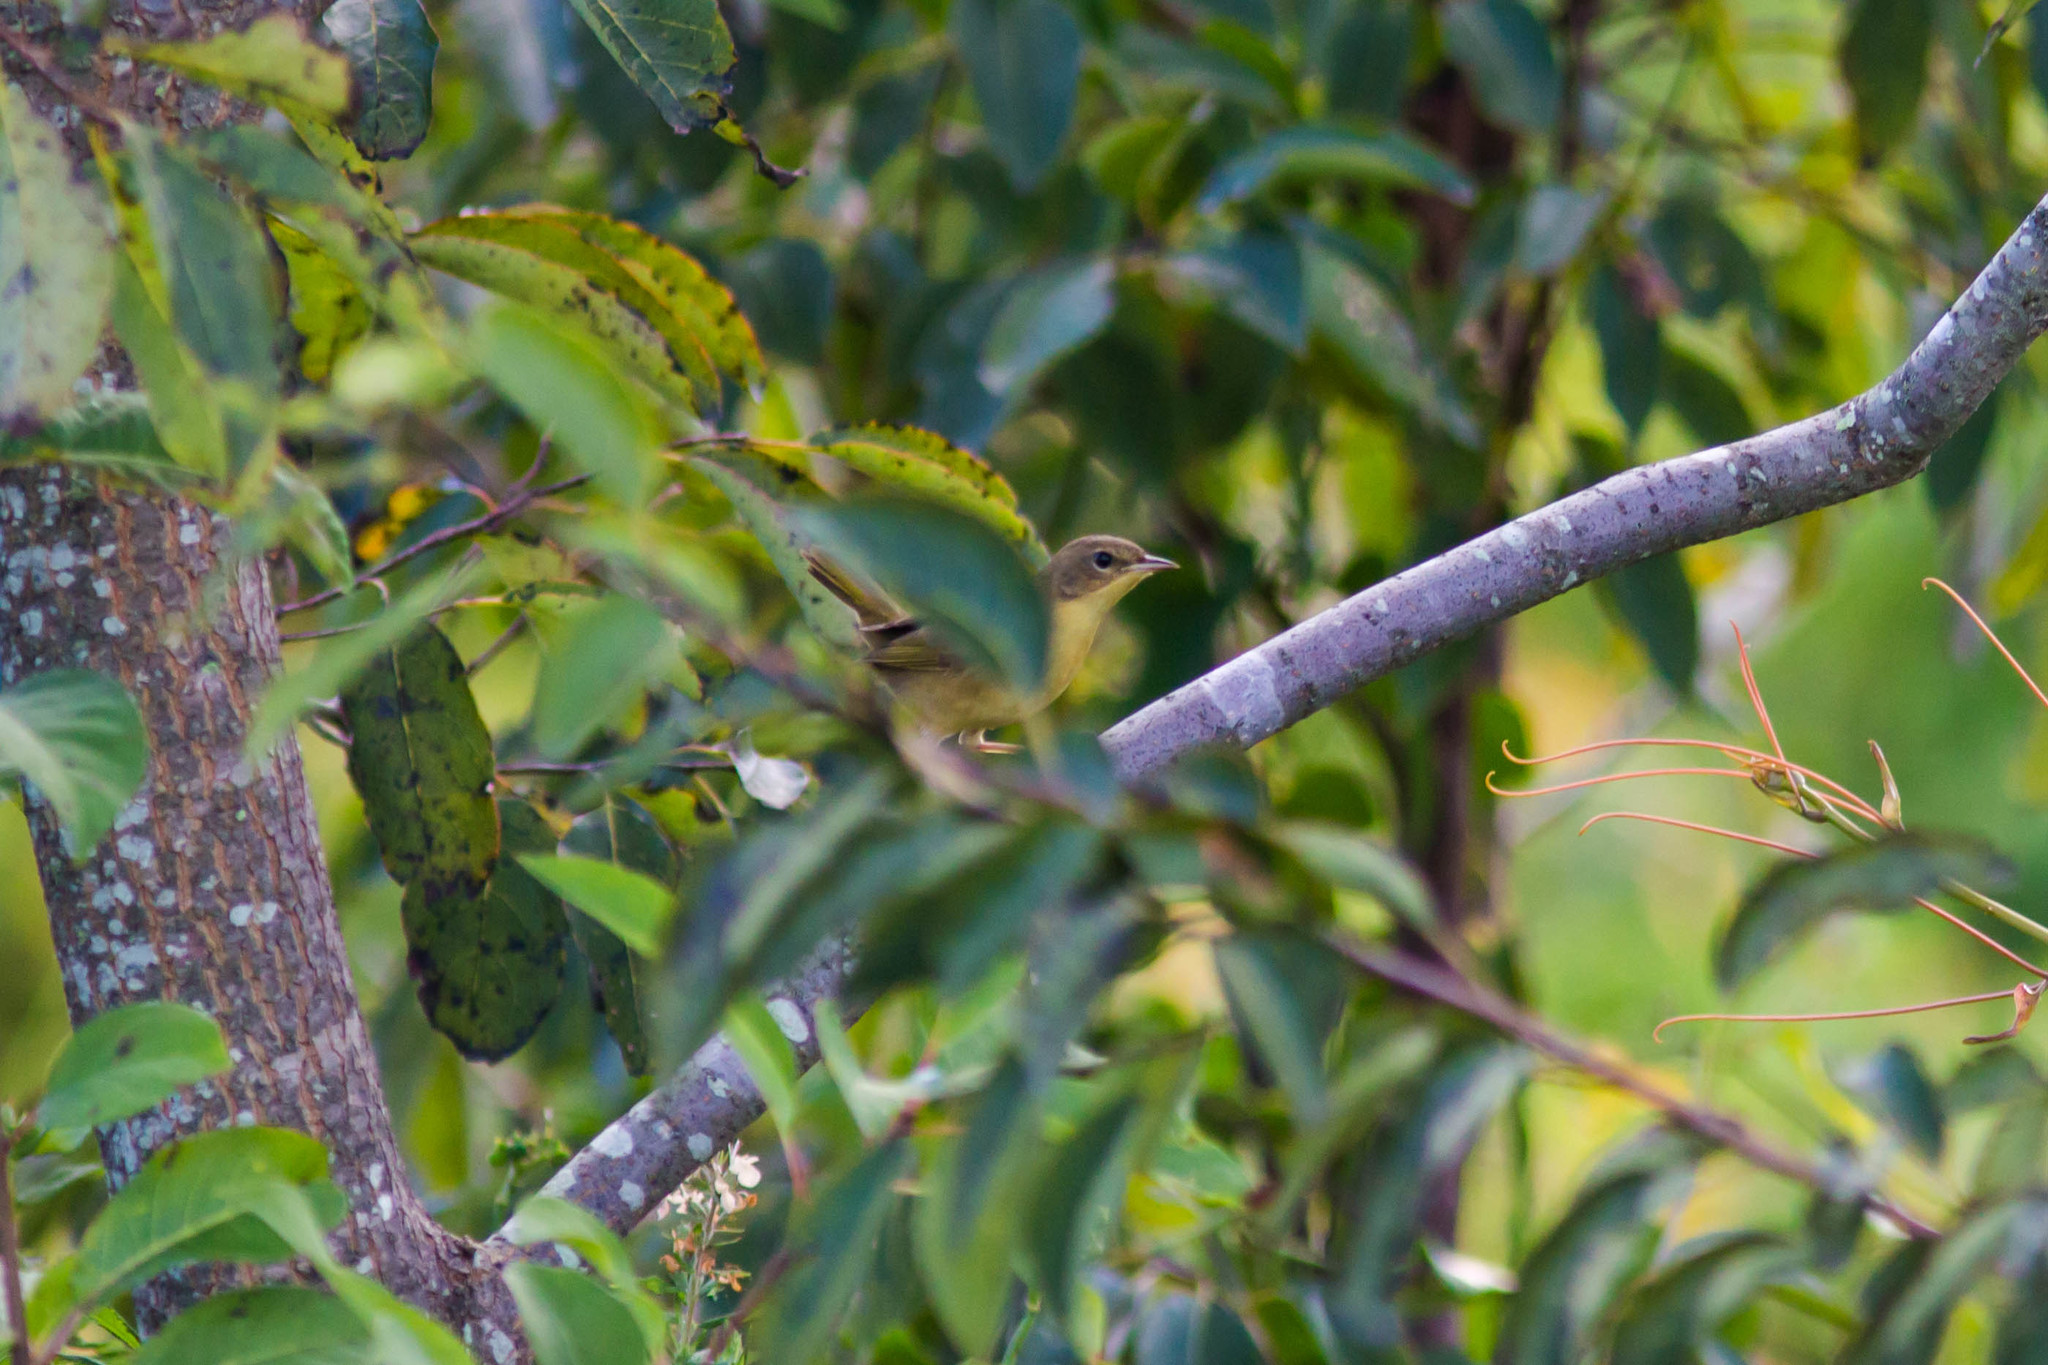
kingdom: Animalia
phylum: Chordata
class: Aves
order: Passeriformes
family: Parulidae
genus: Geothlypis
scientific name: Geothlypis trichas
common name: Common yellowthroat
